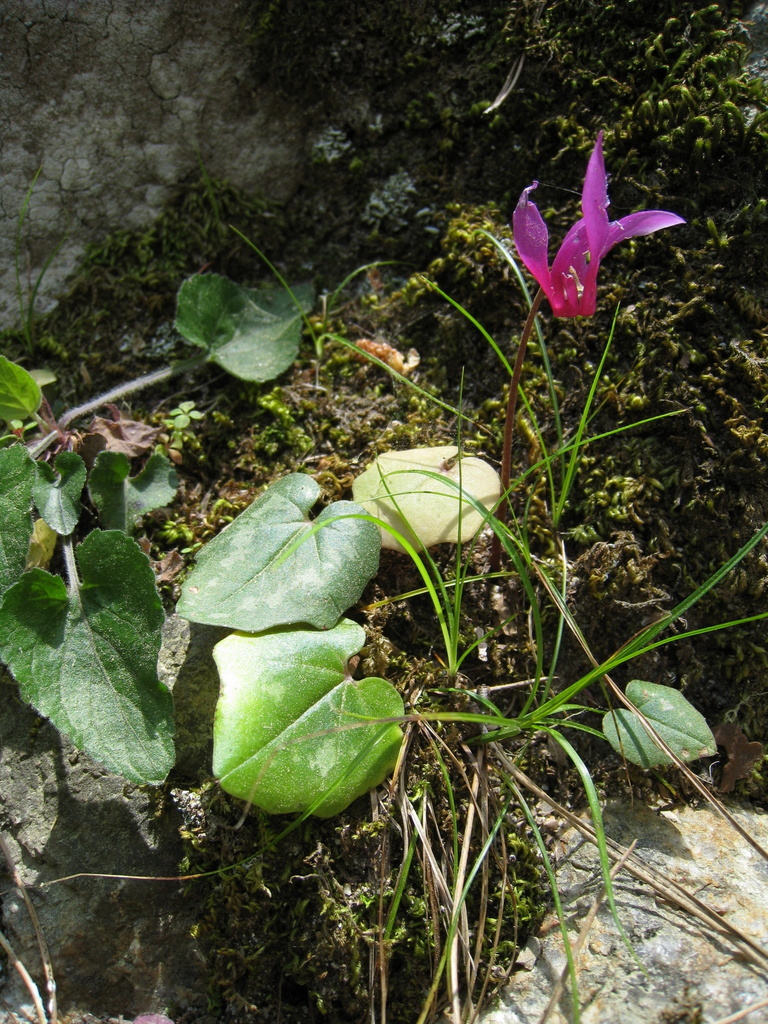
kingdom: Plantae
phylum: Tracheophyta
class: Magnoliopsida
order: Ericales
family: Primulaceae
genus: Cyclamen
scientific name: Cyclamen repandum
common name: Spring sowbread
